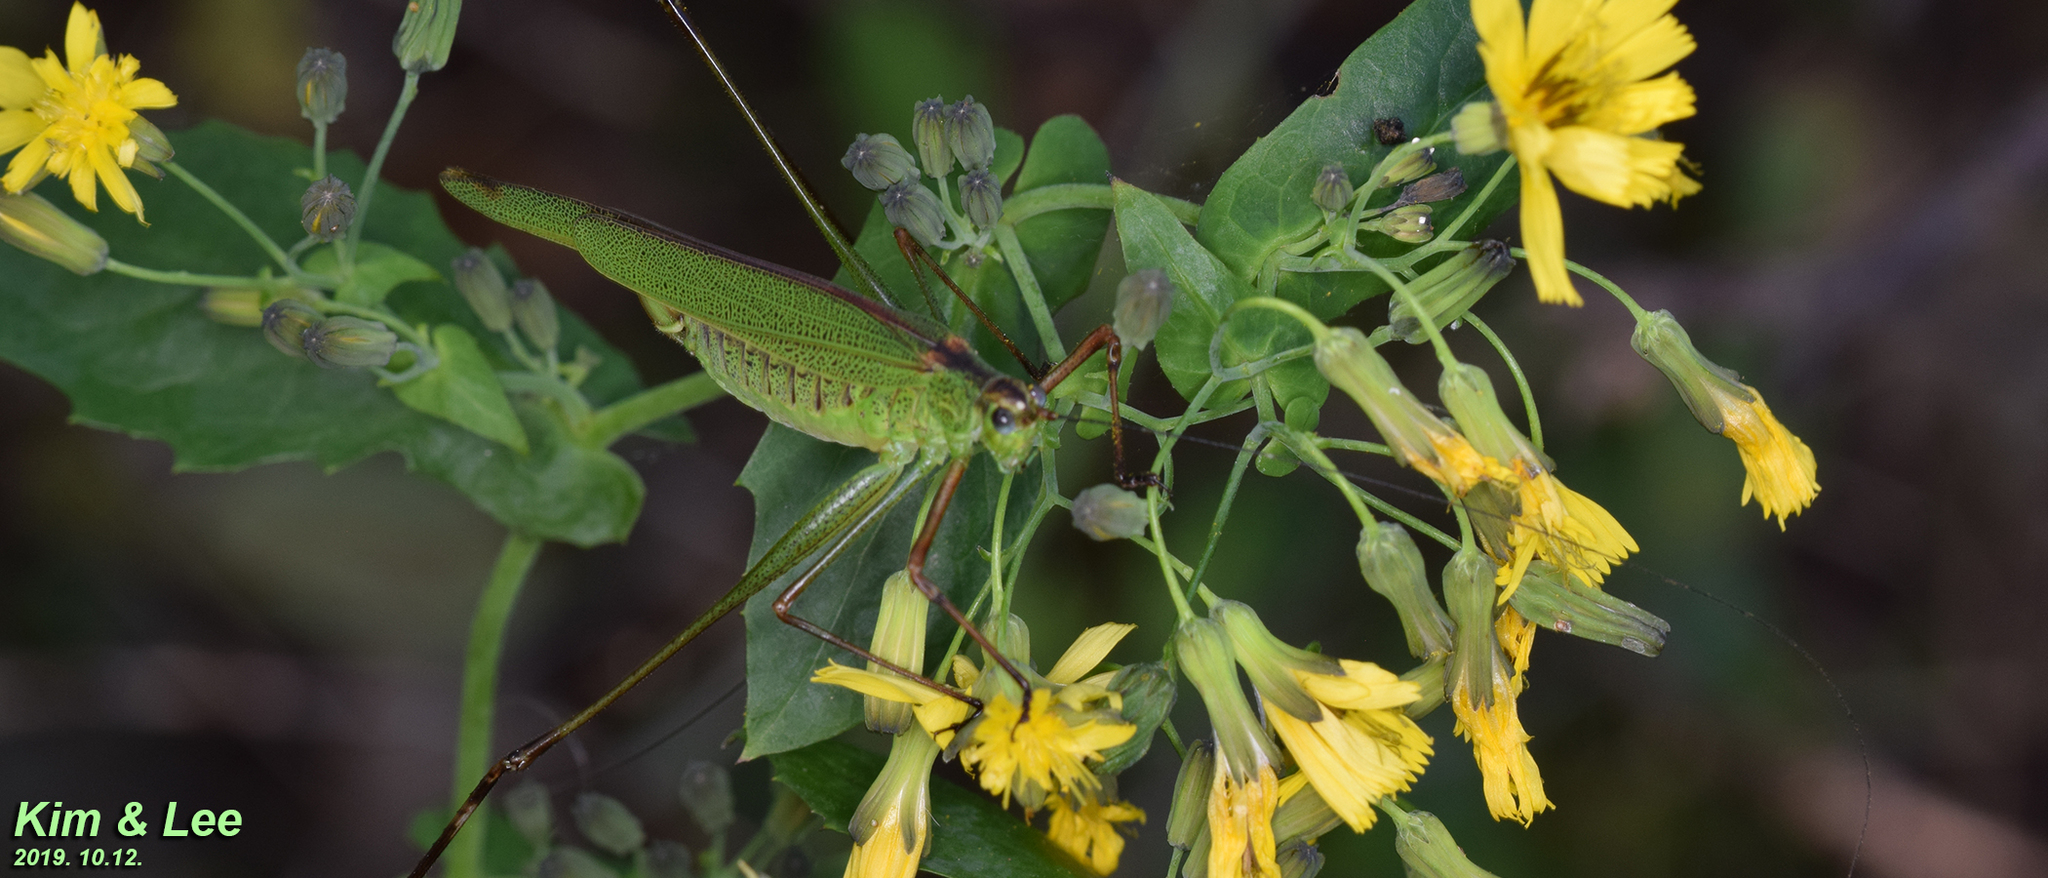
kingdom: Animalia
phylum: Arthropoda
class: Insecta
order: Orthoptera
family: Tettigoniidae
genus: Phaneroptera
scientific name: Phaneroptera nigroantennata
